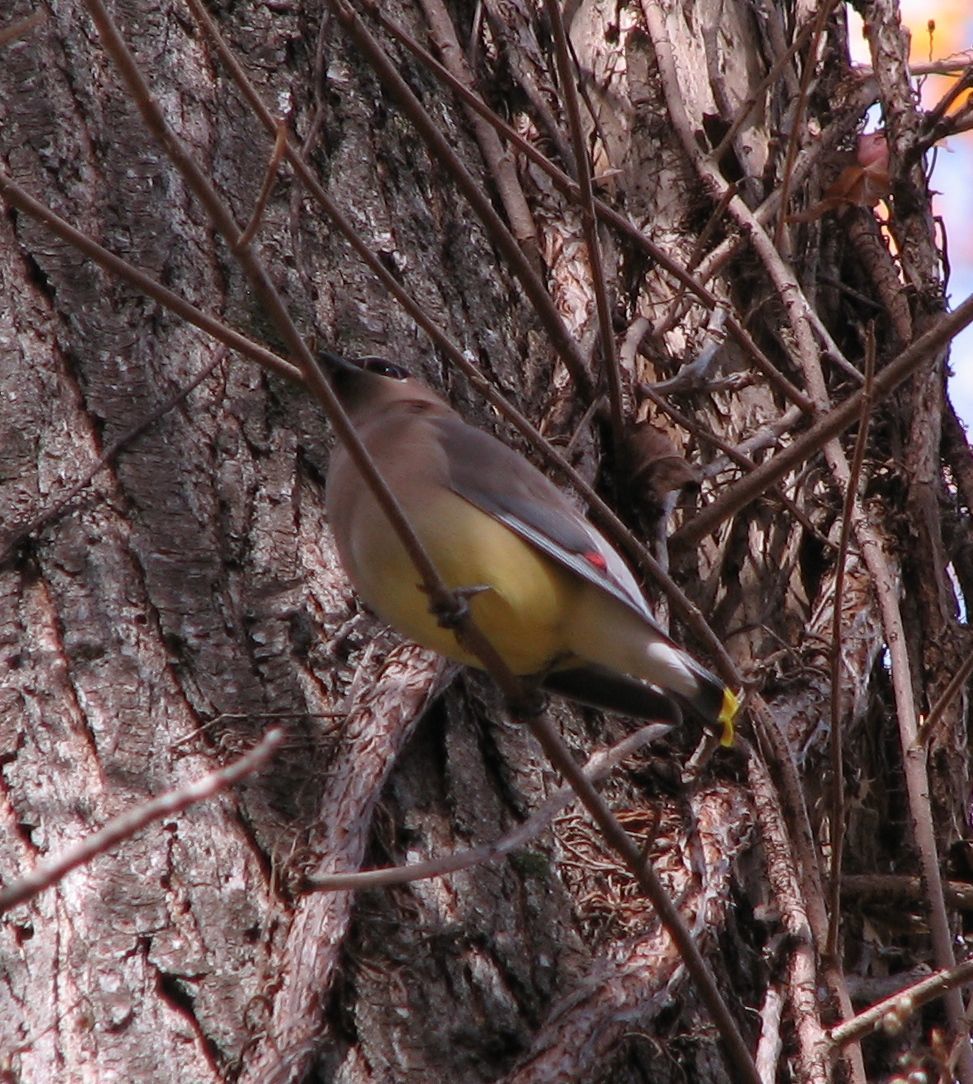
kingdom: Animalia
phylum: Chordata
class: Aves
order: Passeriformes
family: Bombycillidae
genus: Bombycilla
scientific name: Bombycilla cedrorum
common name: Cedar waxwing
